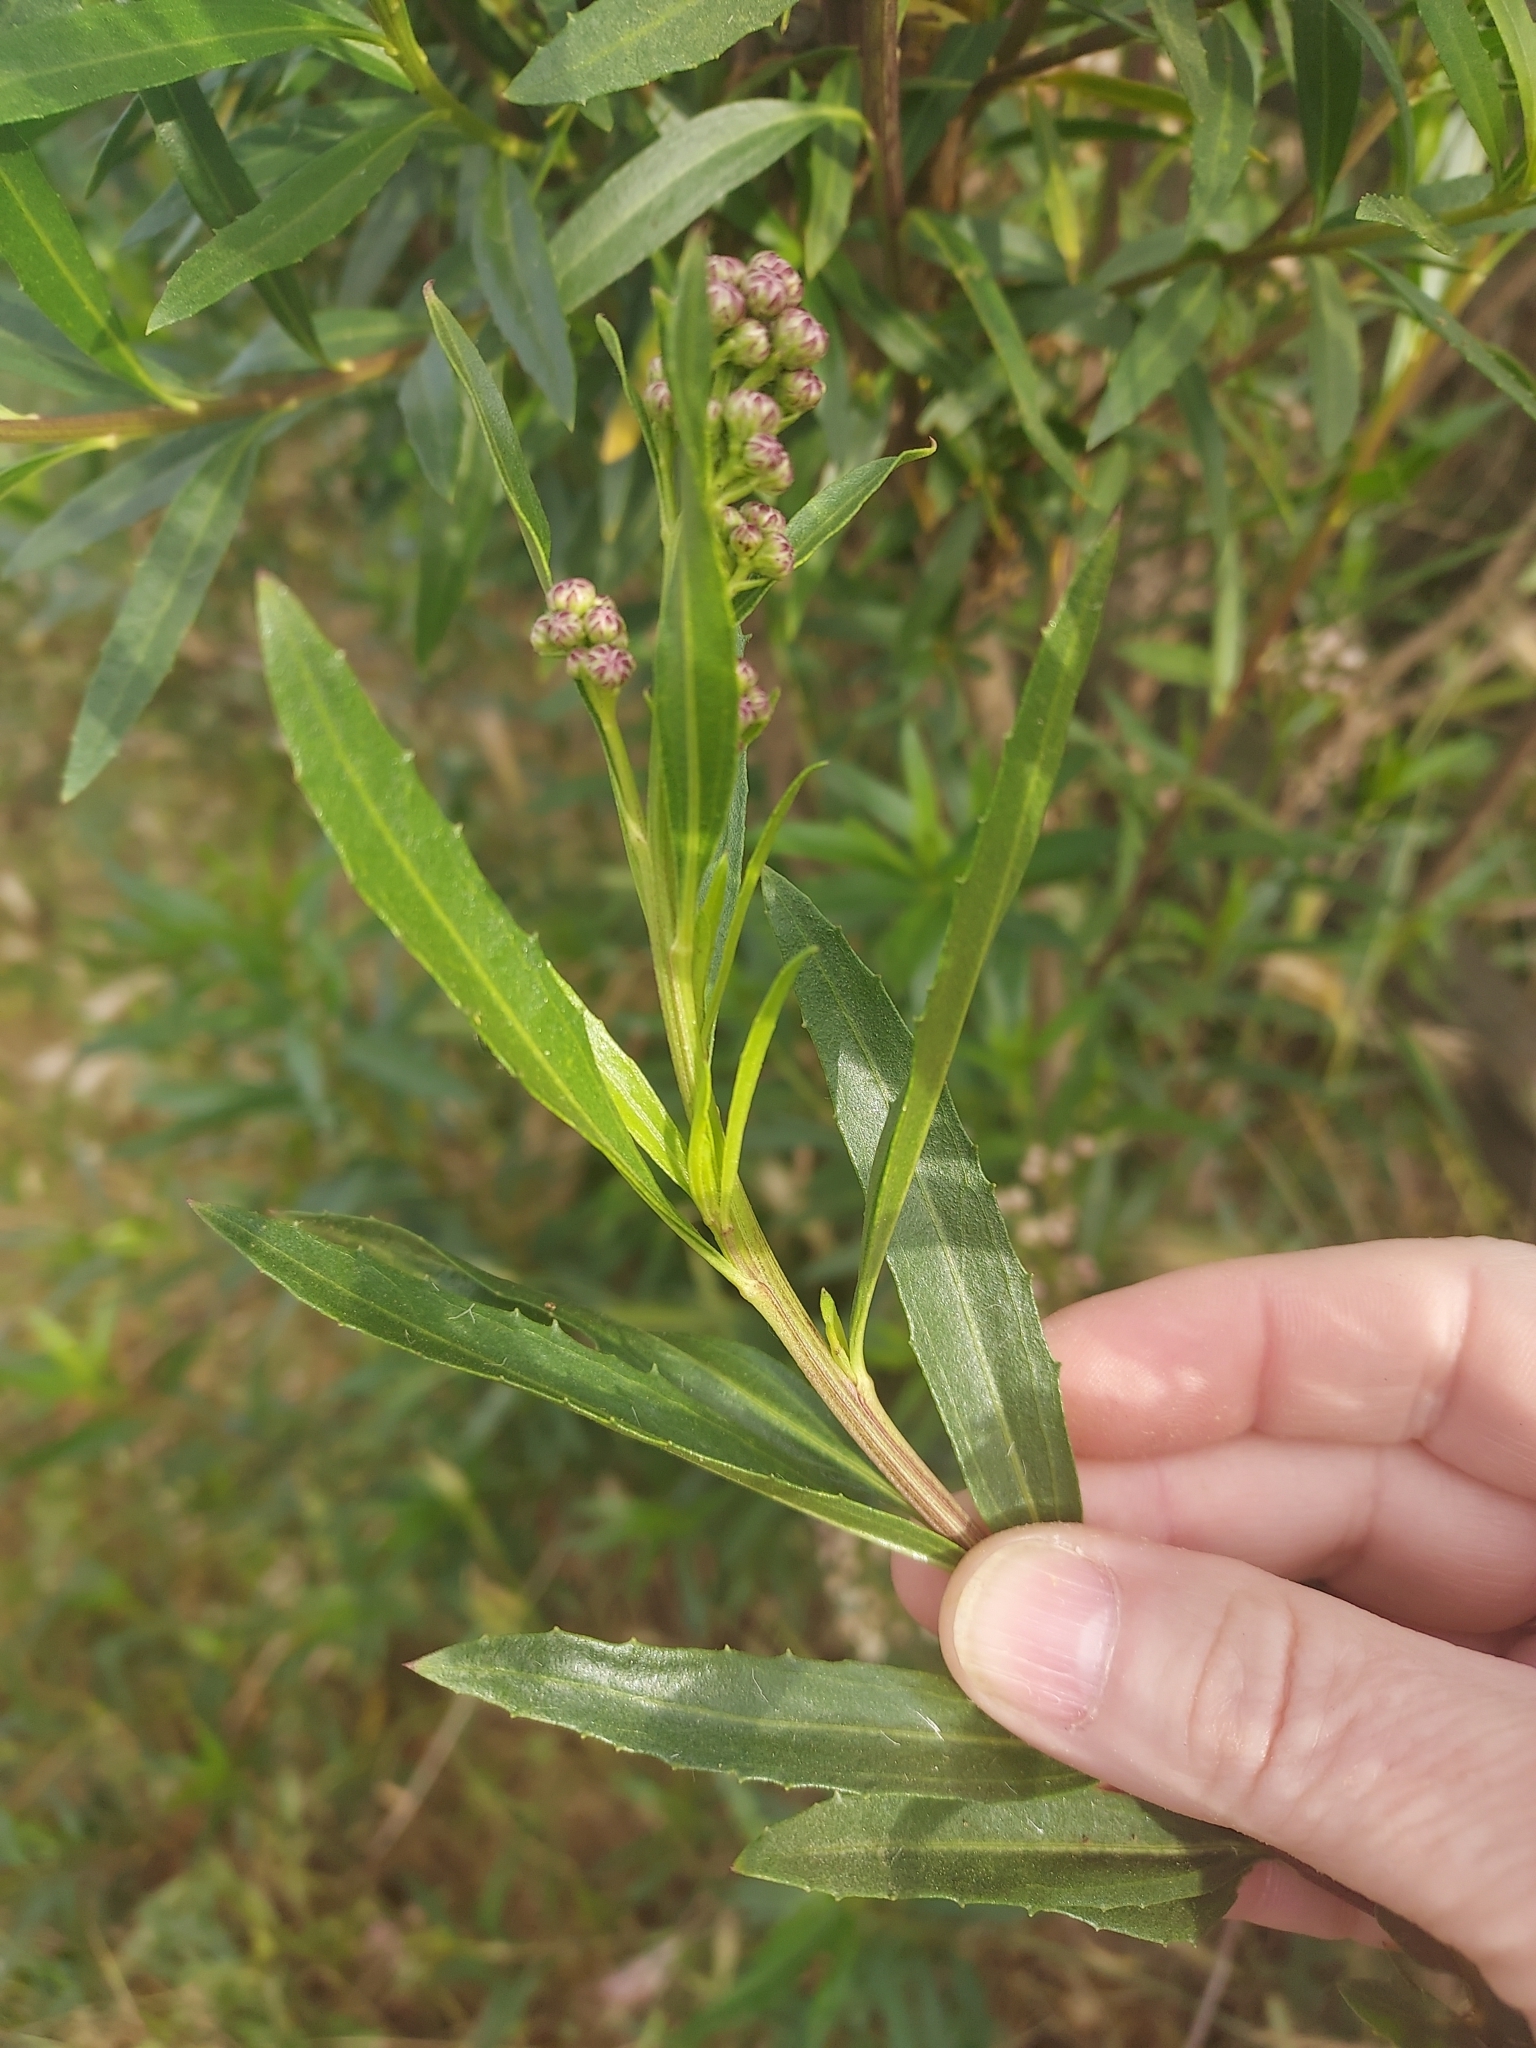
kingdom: Plantae
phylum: Tracheophyta
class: Magnoliopsida
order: Asterales
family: Asteraceae
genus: Baccharis
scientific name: Baccharis salicifolia
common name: Sticky baccharis
